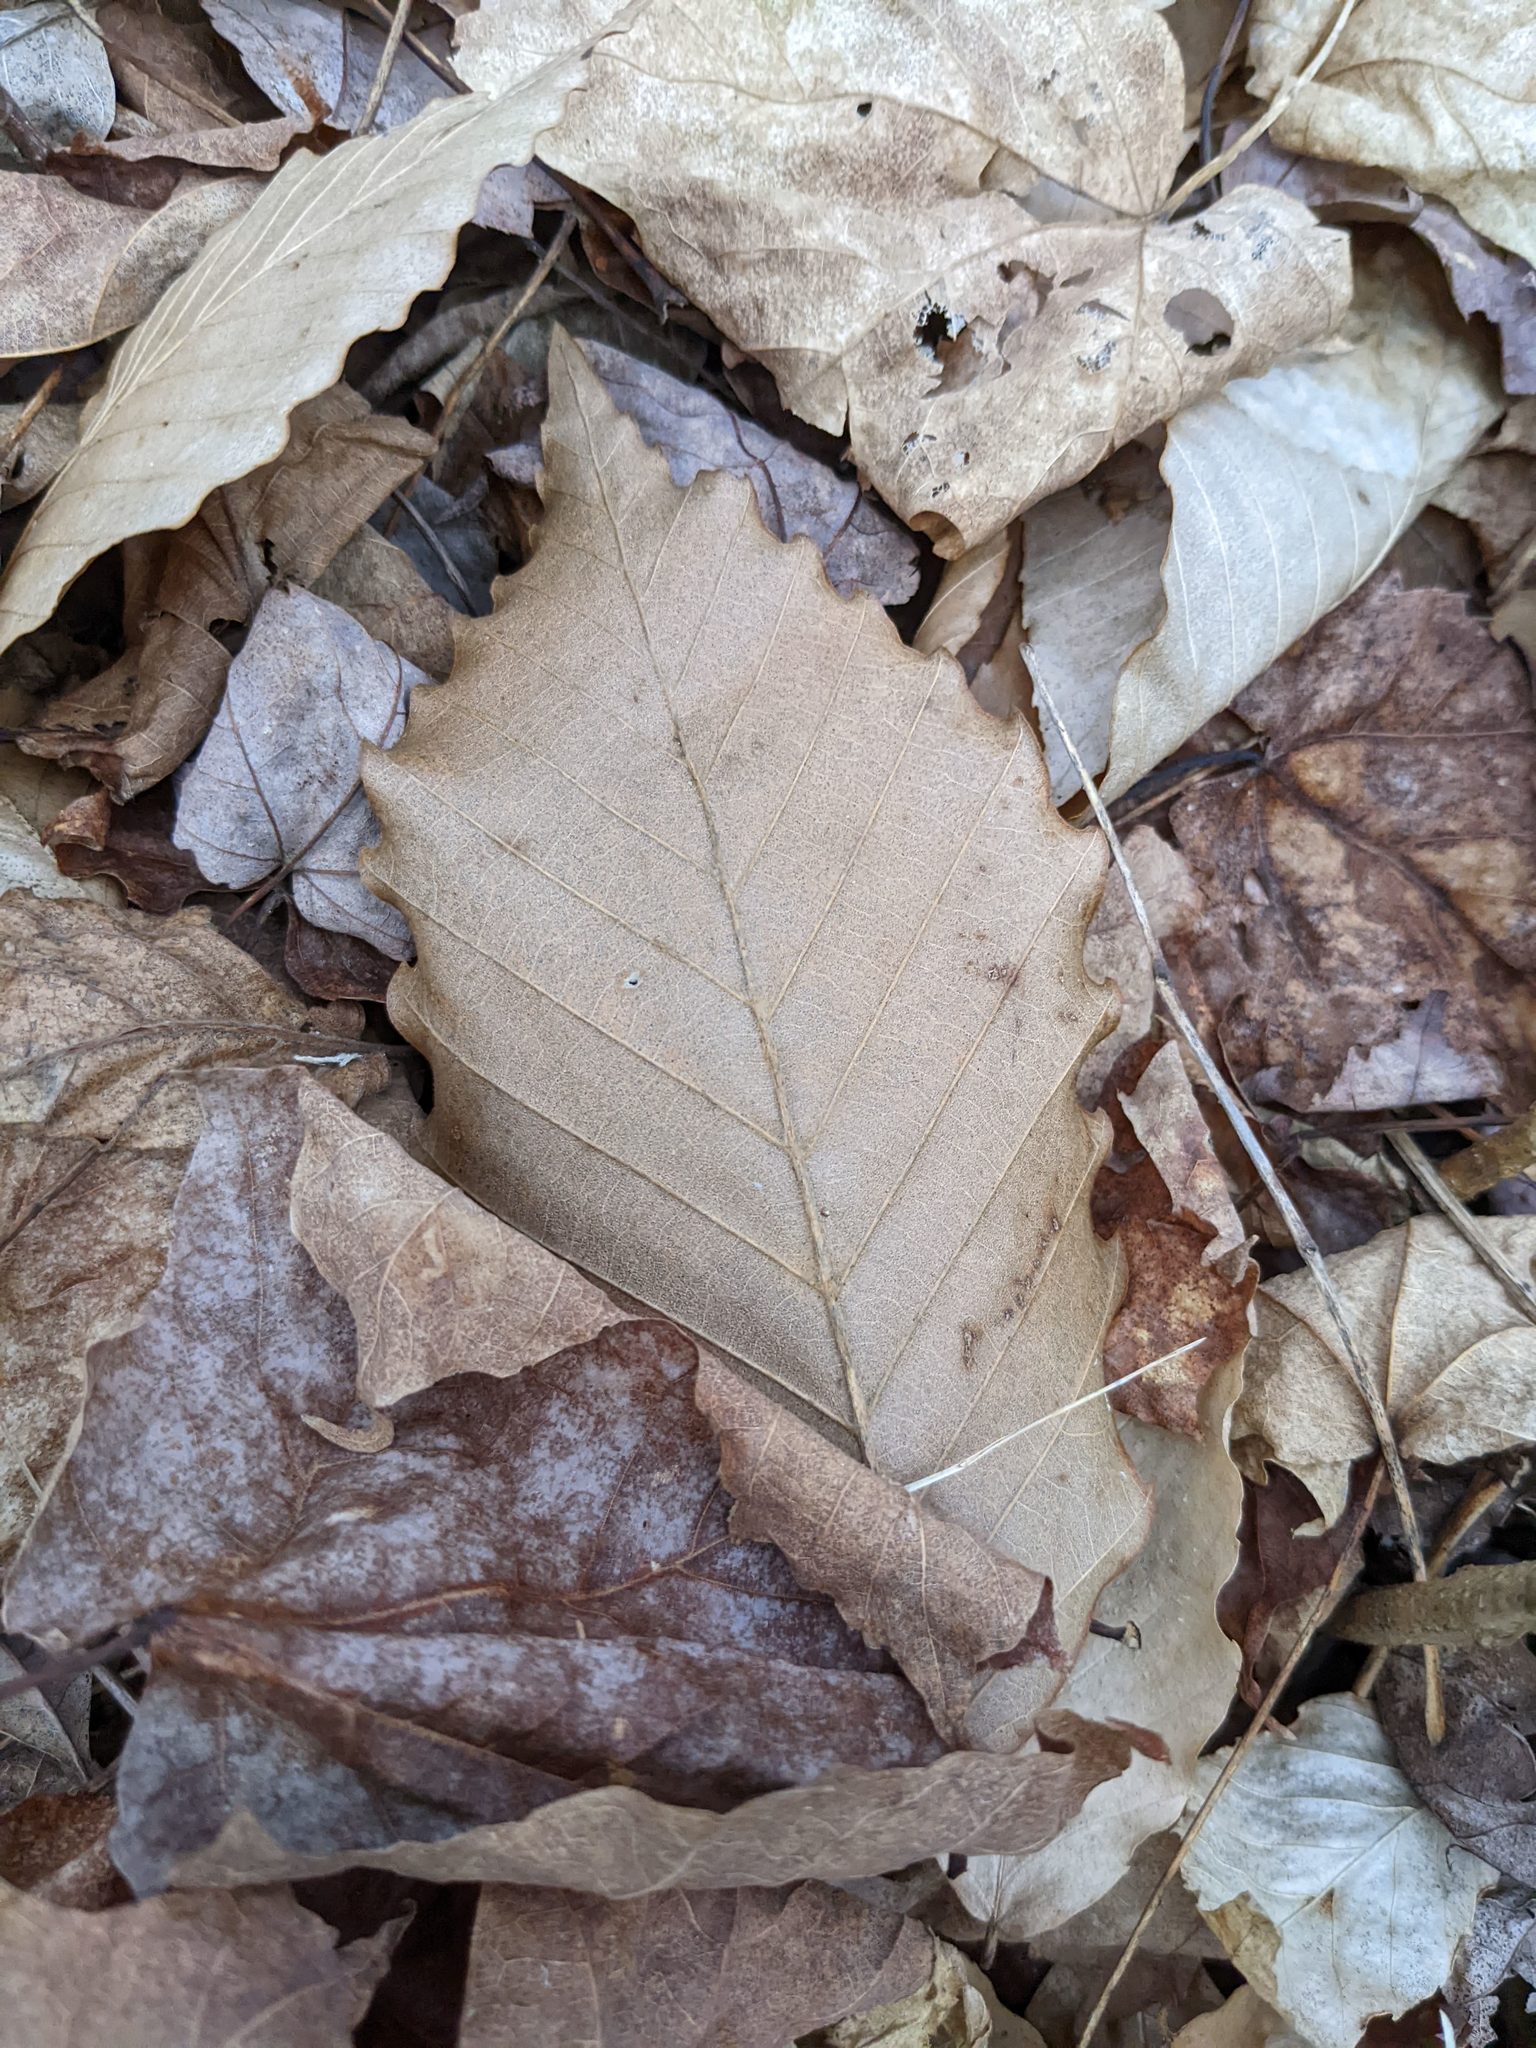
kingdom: Plantae
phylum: Tracheophyta
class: Magnoliopsida
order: Fagales
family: Fagaceae
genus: Fagus
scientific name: Fagus grandifolia
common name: American beech
